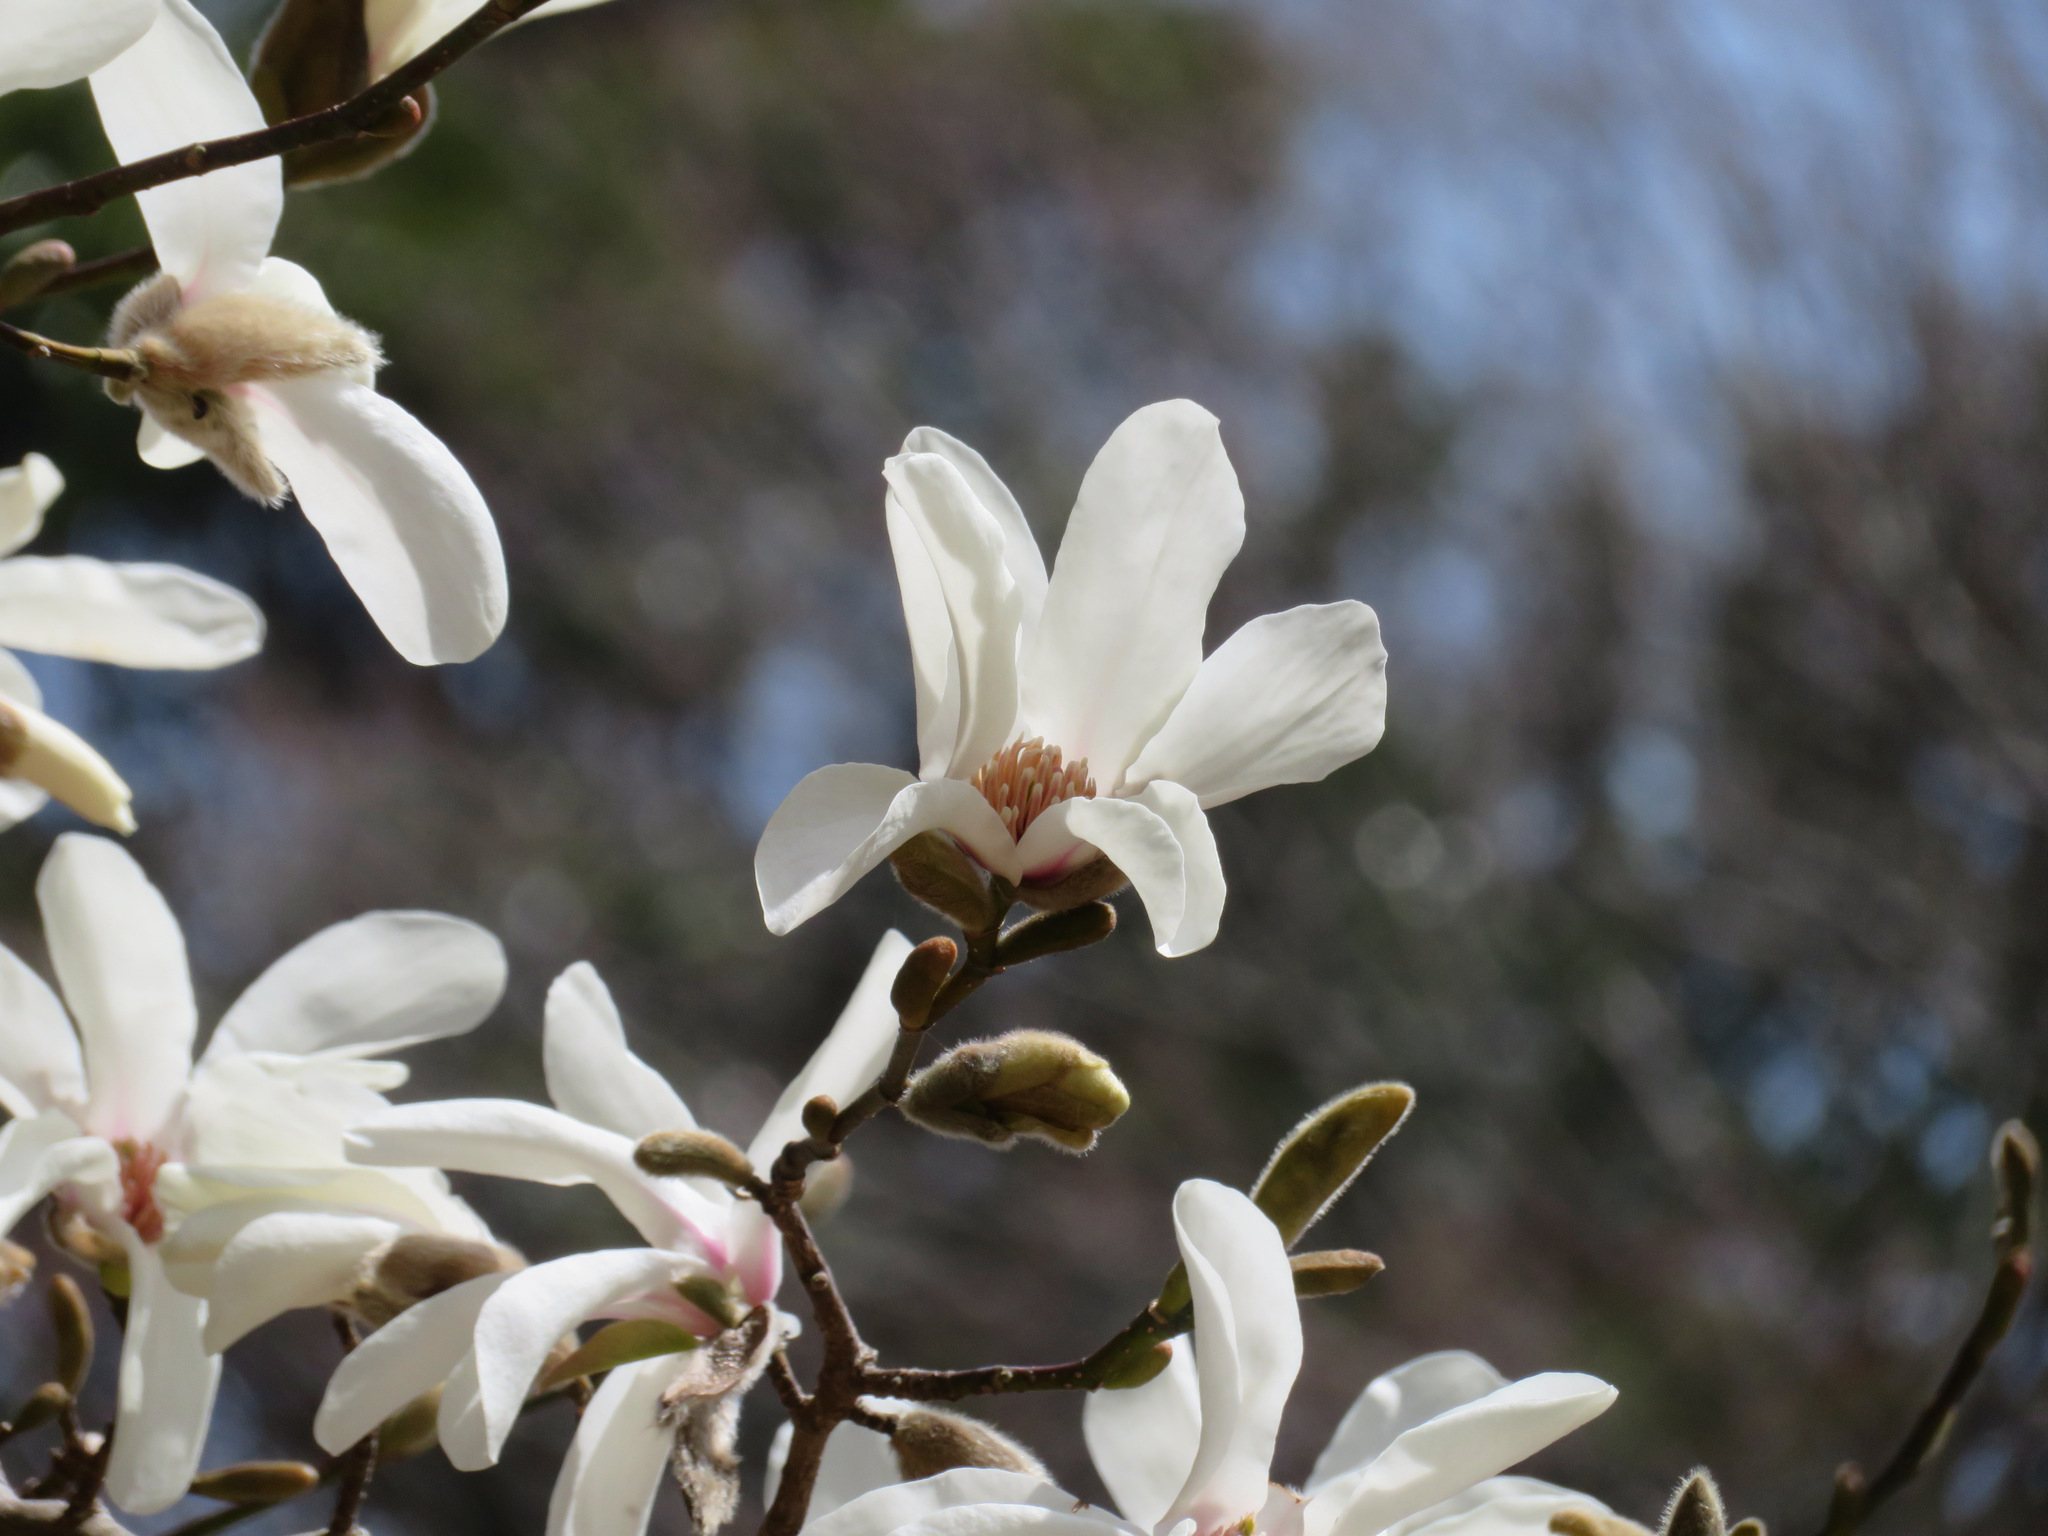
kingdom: Plantae
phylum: Tracheophyta
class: Magnoliopsida
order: Magnoliales
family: Magnoliaceae
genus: Magnolia
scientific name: Magnolia kobus
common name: Kobus magnolia
